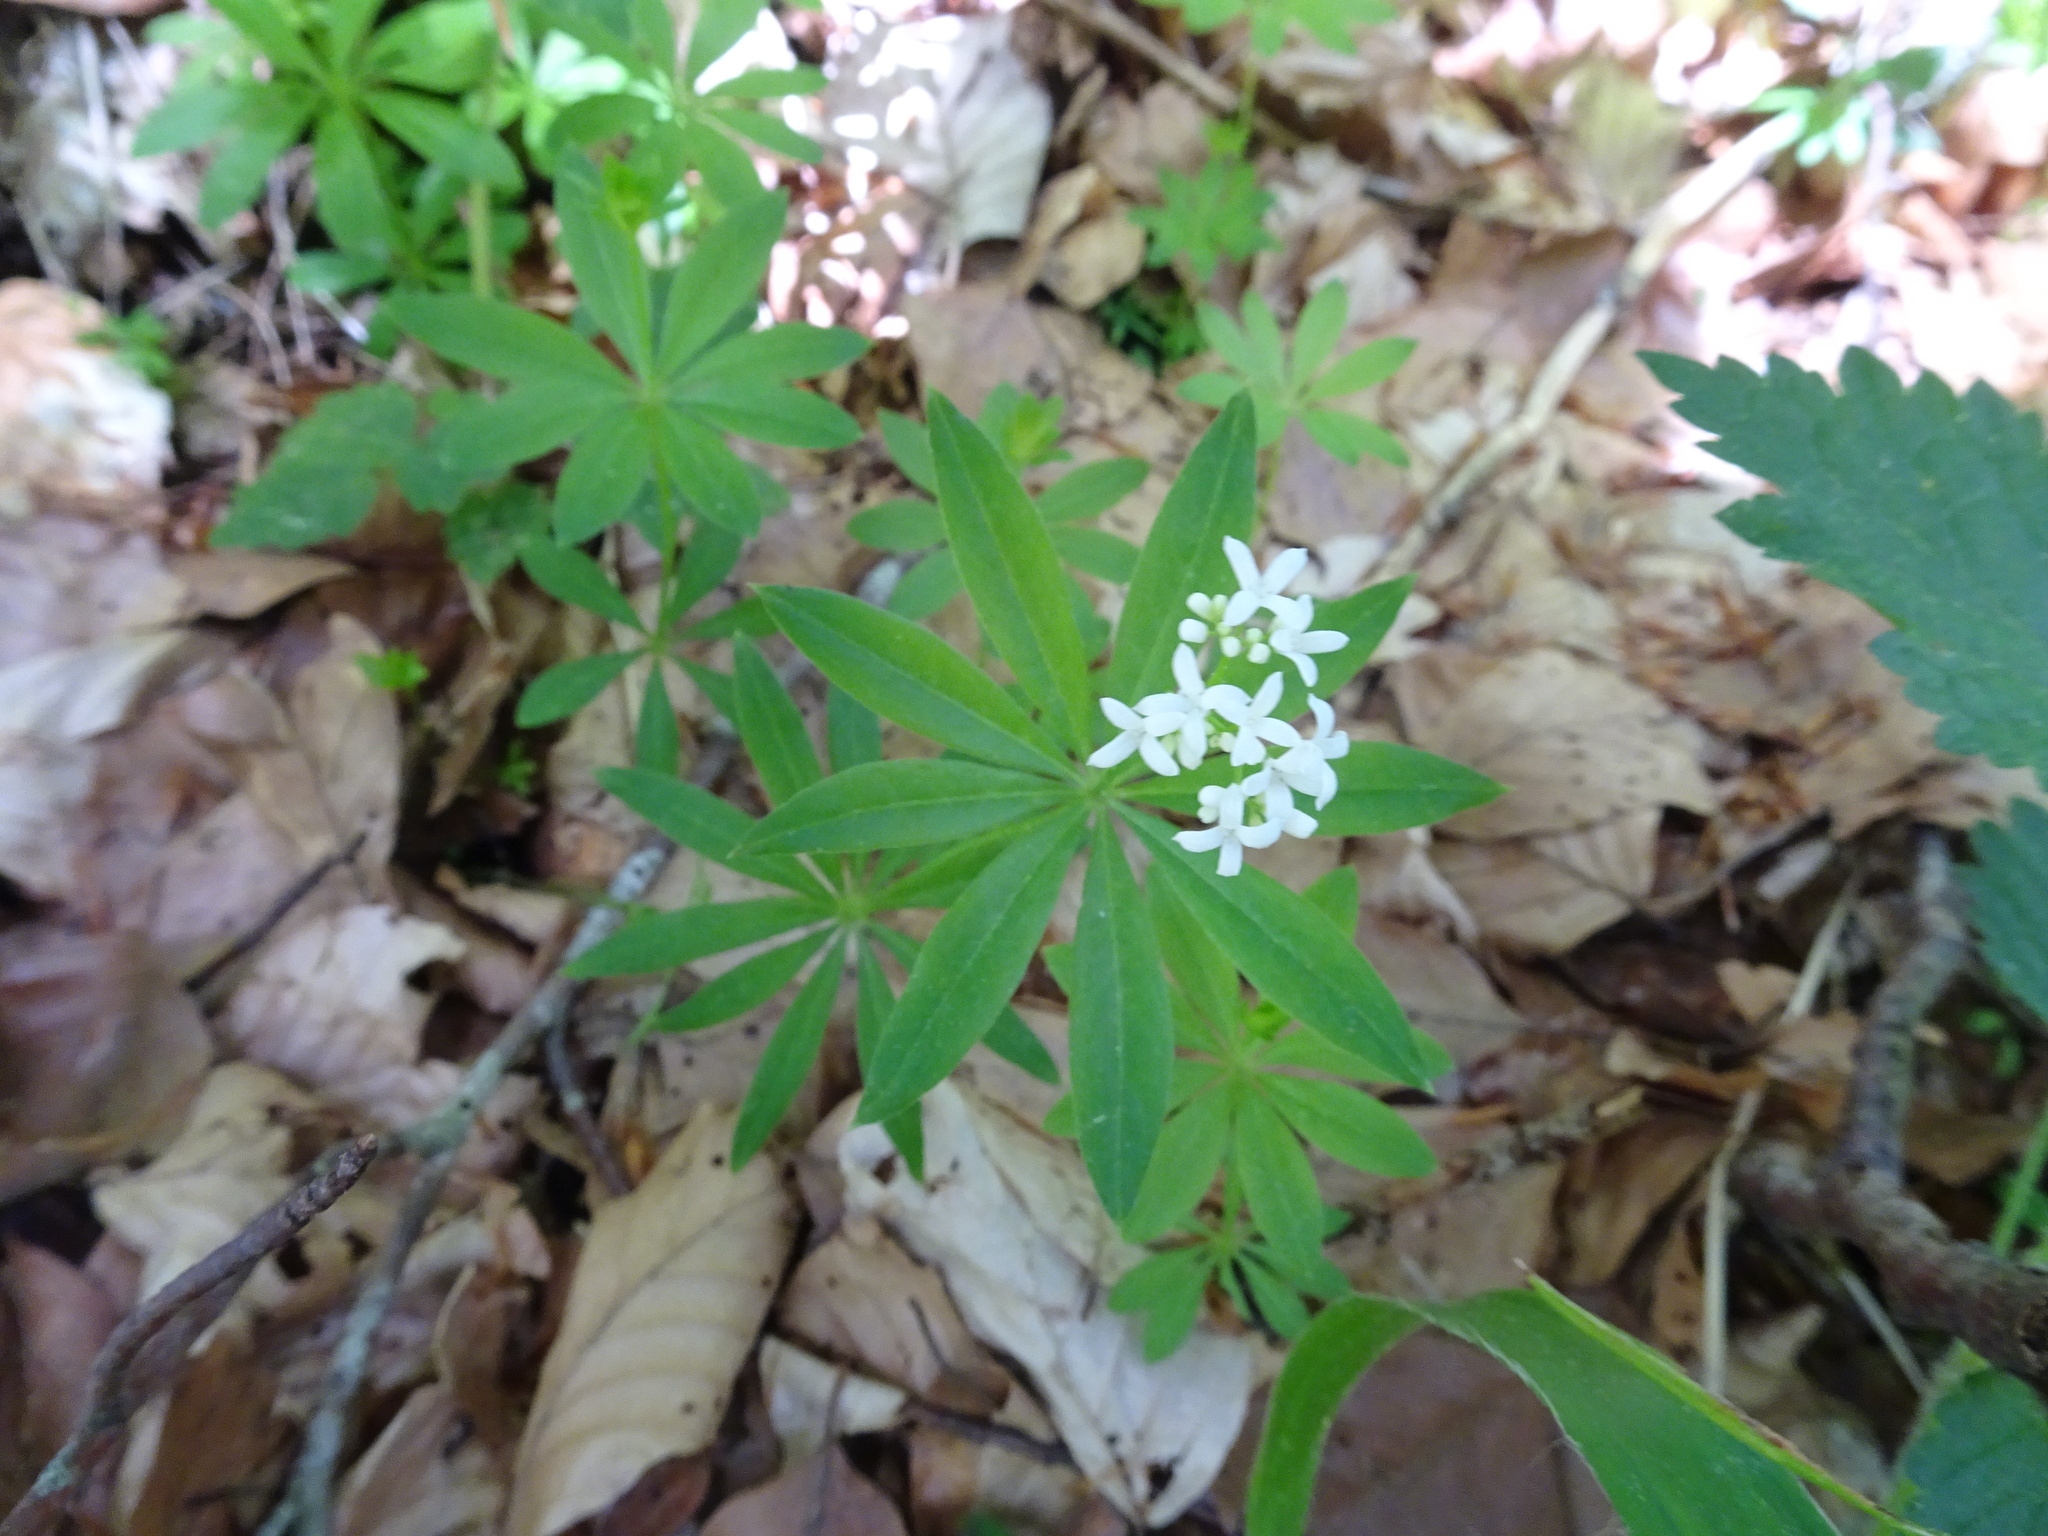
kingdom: Plantae
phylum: Tracheophyta
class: Magnoliopsida
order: Gentianales
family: Rubiaceae
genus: Galium
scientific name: Galium odoratum
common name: Sweet woodruff
